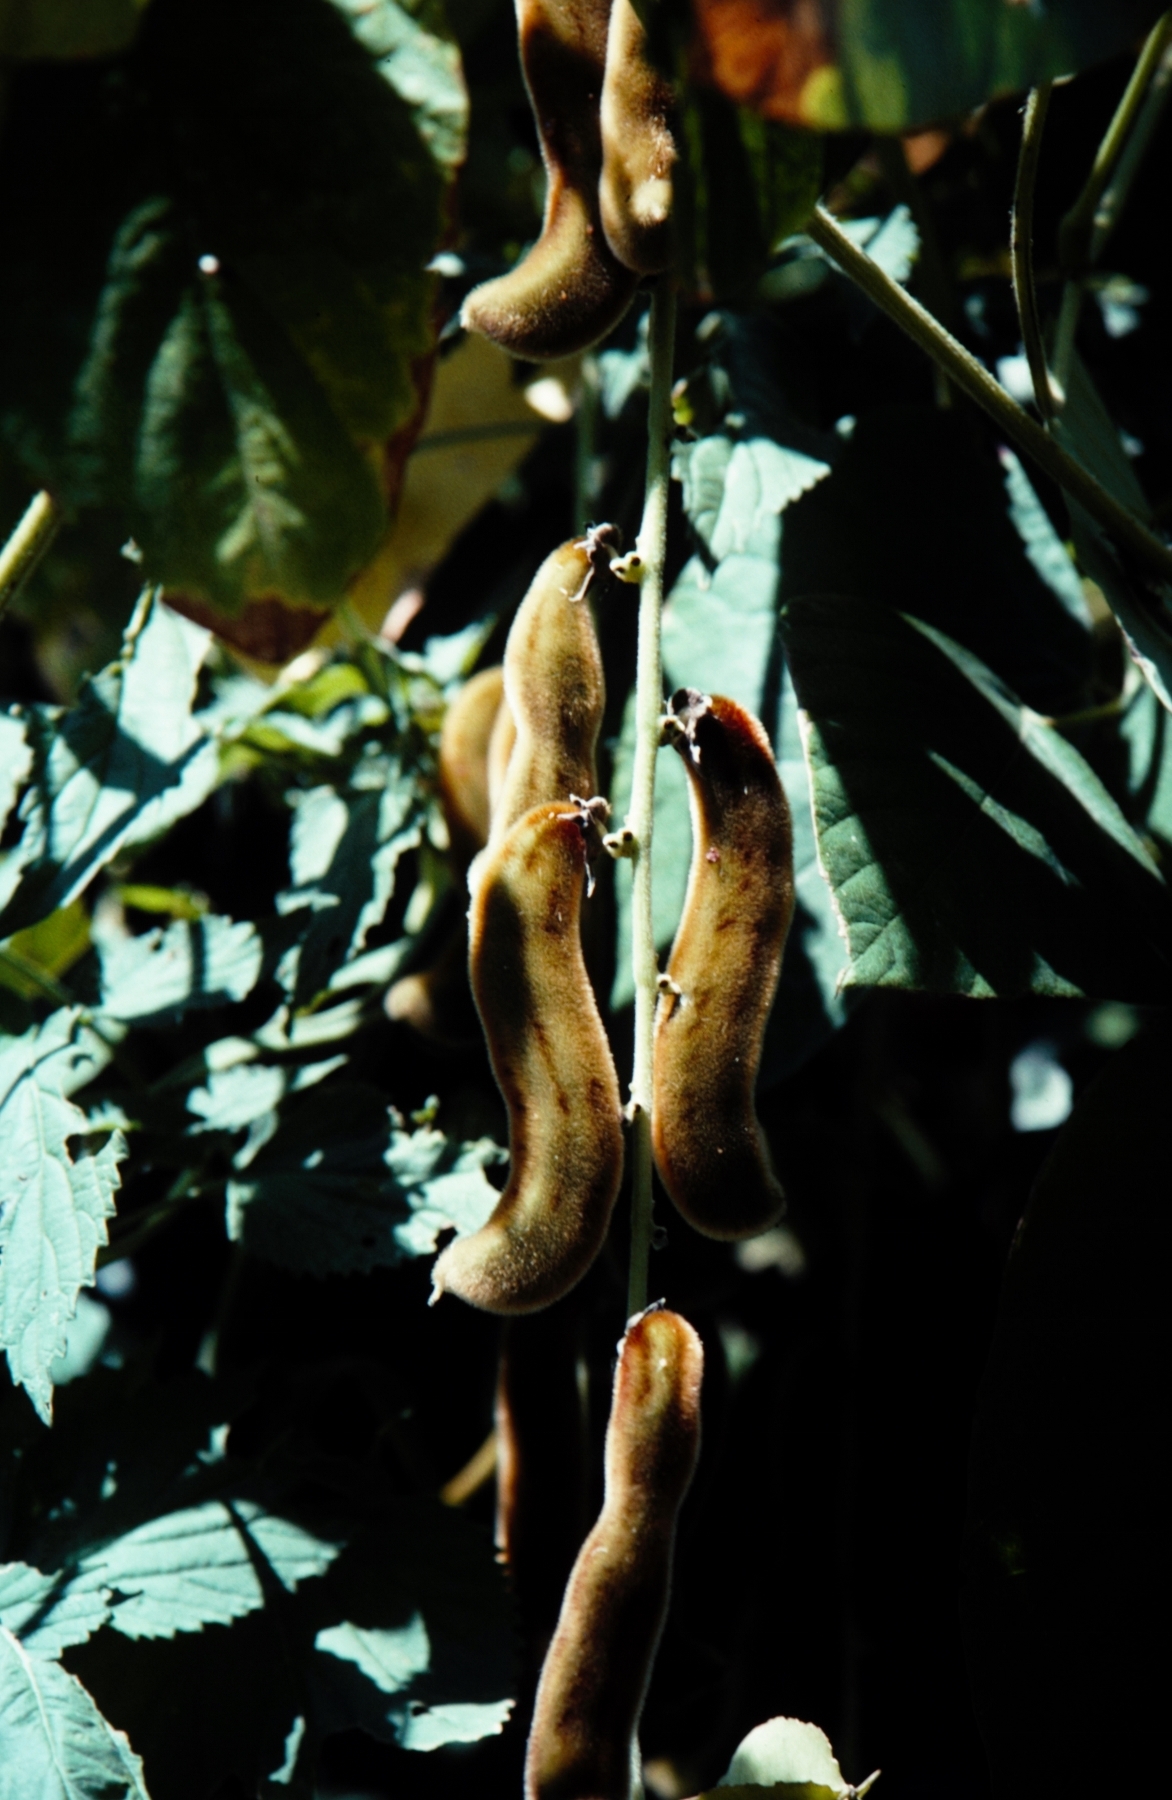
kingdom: Plantae
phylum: Tracheophyta
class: Magnoliopsida
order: Fabales
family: Fabaceae
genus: Mucuna
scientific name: Mucuna coriacea
